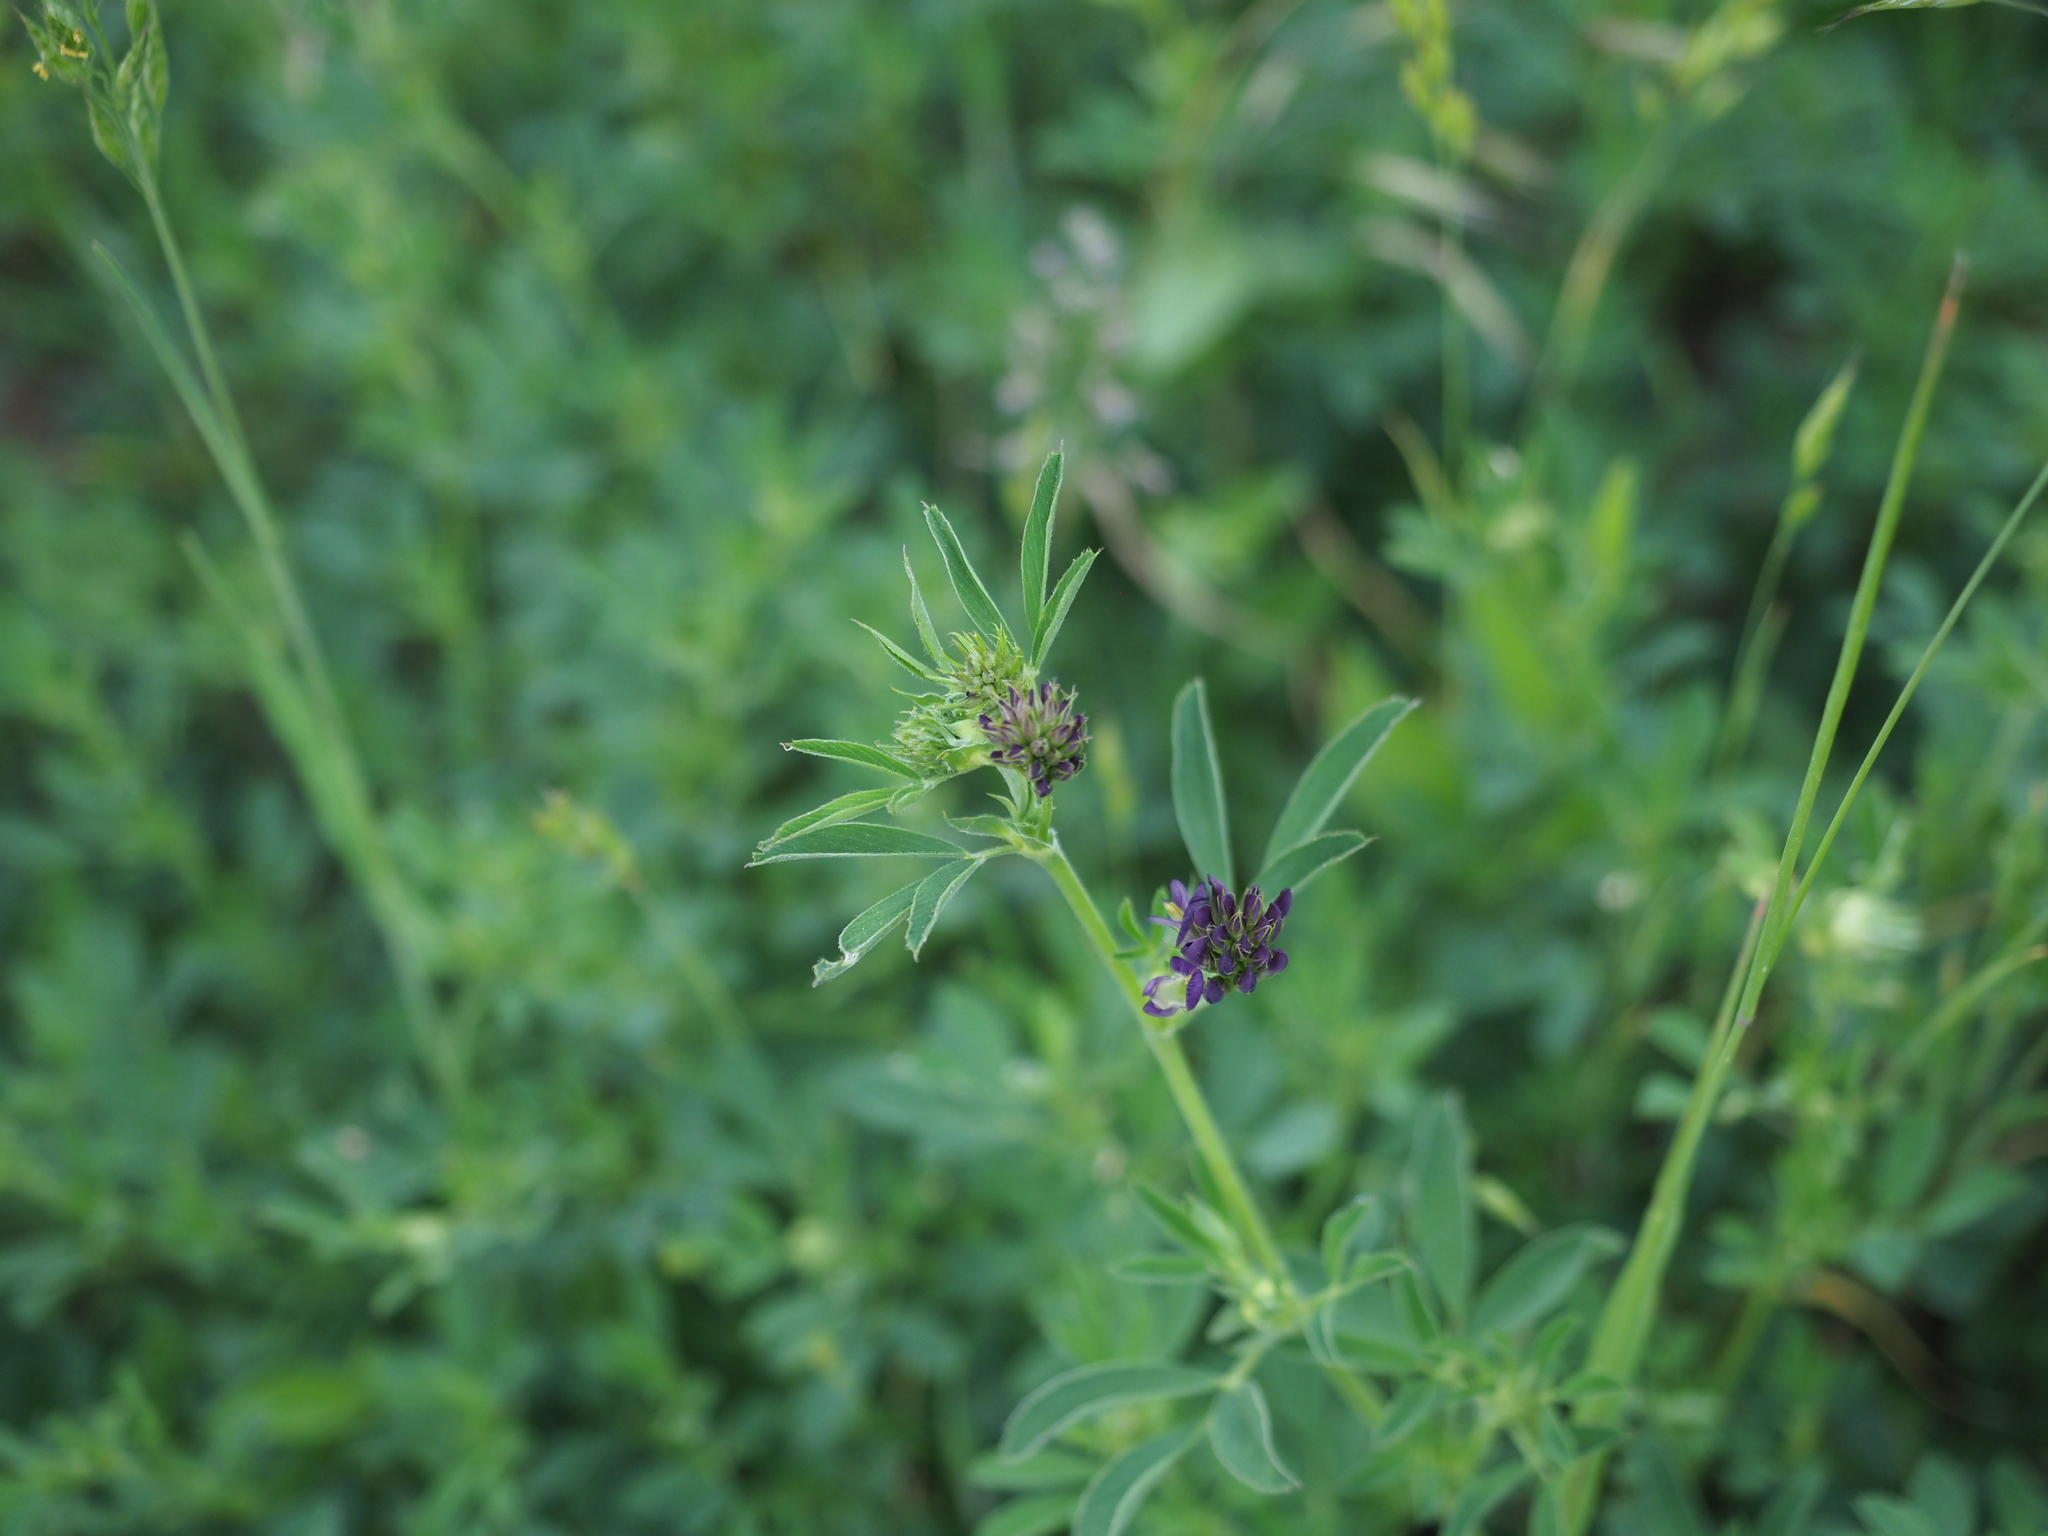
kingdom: Plantae
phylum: Tracheophyta
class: Magnoliopsida
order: Fabales
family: Fabaceae
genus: Medicago
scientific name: Medicago sativa
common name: Alfalfa
